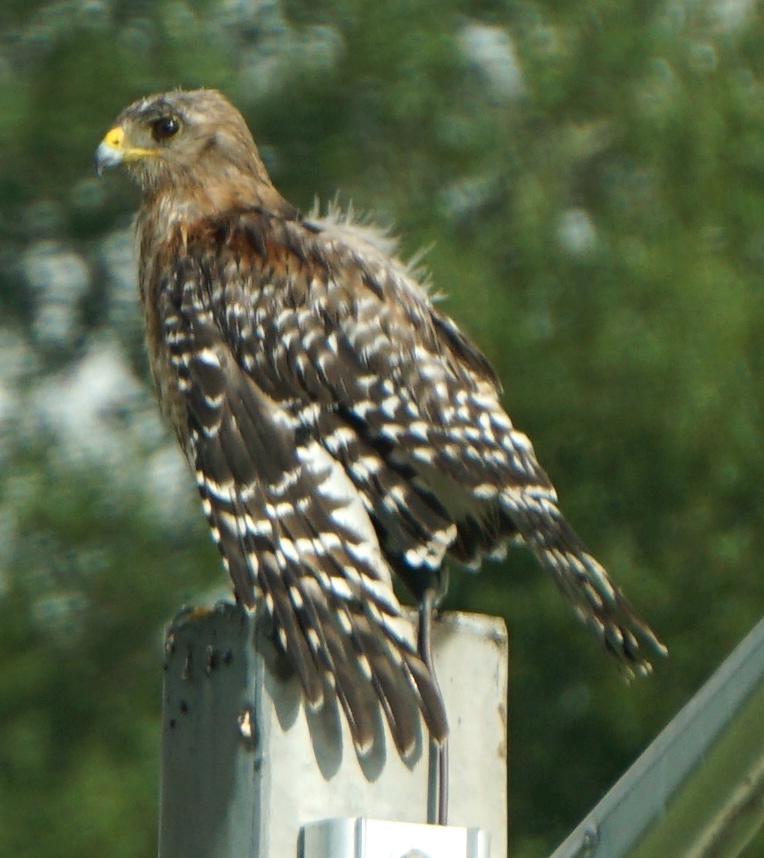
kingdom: Animalia
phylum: Chordata
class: Aves
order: Accipitriformes
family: Accipitridae
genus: Buteo
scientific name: Buteo lineatus
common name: Red-shouldered hawk
